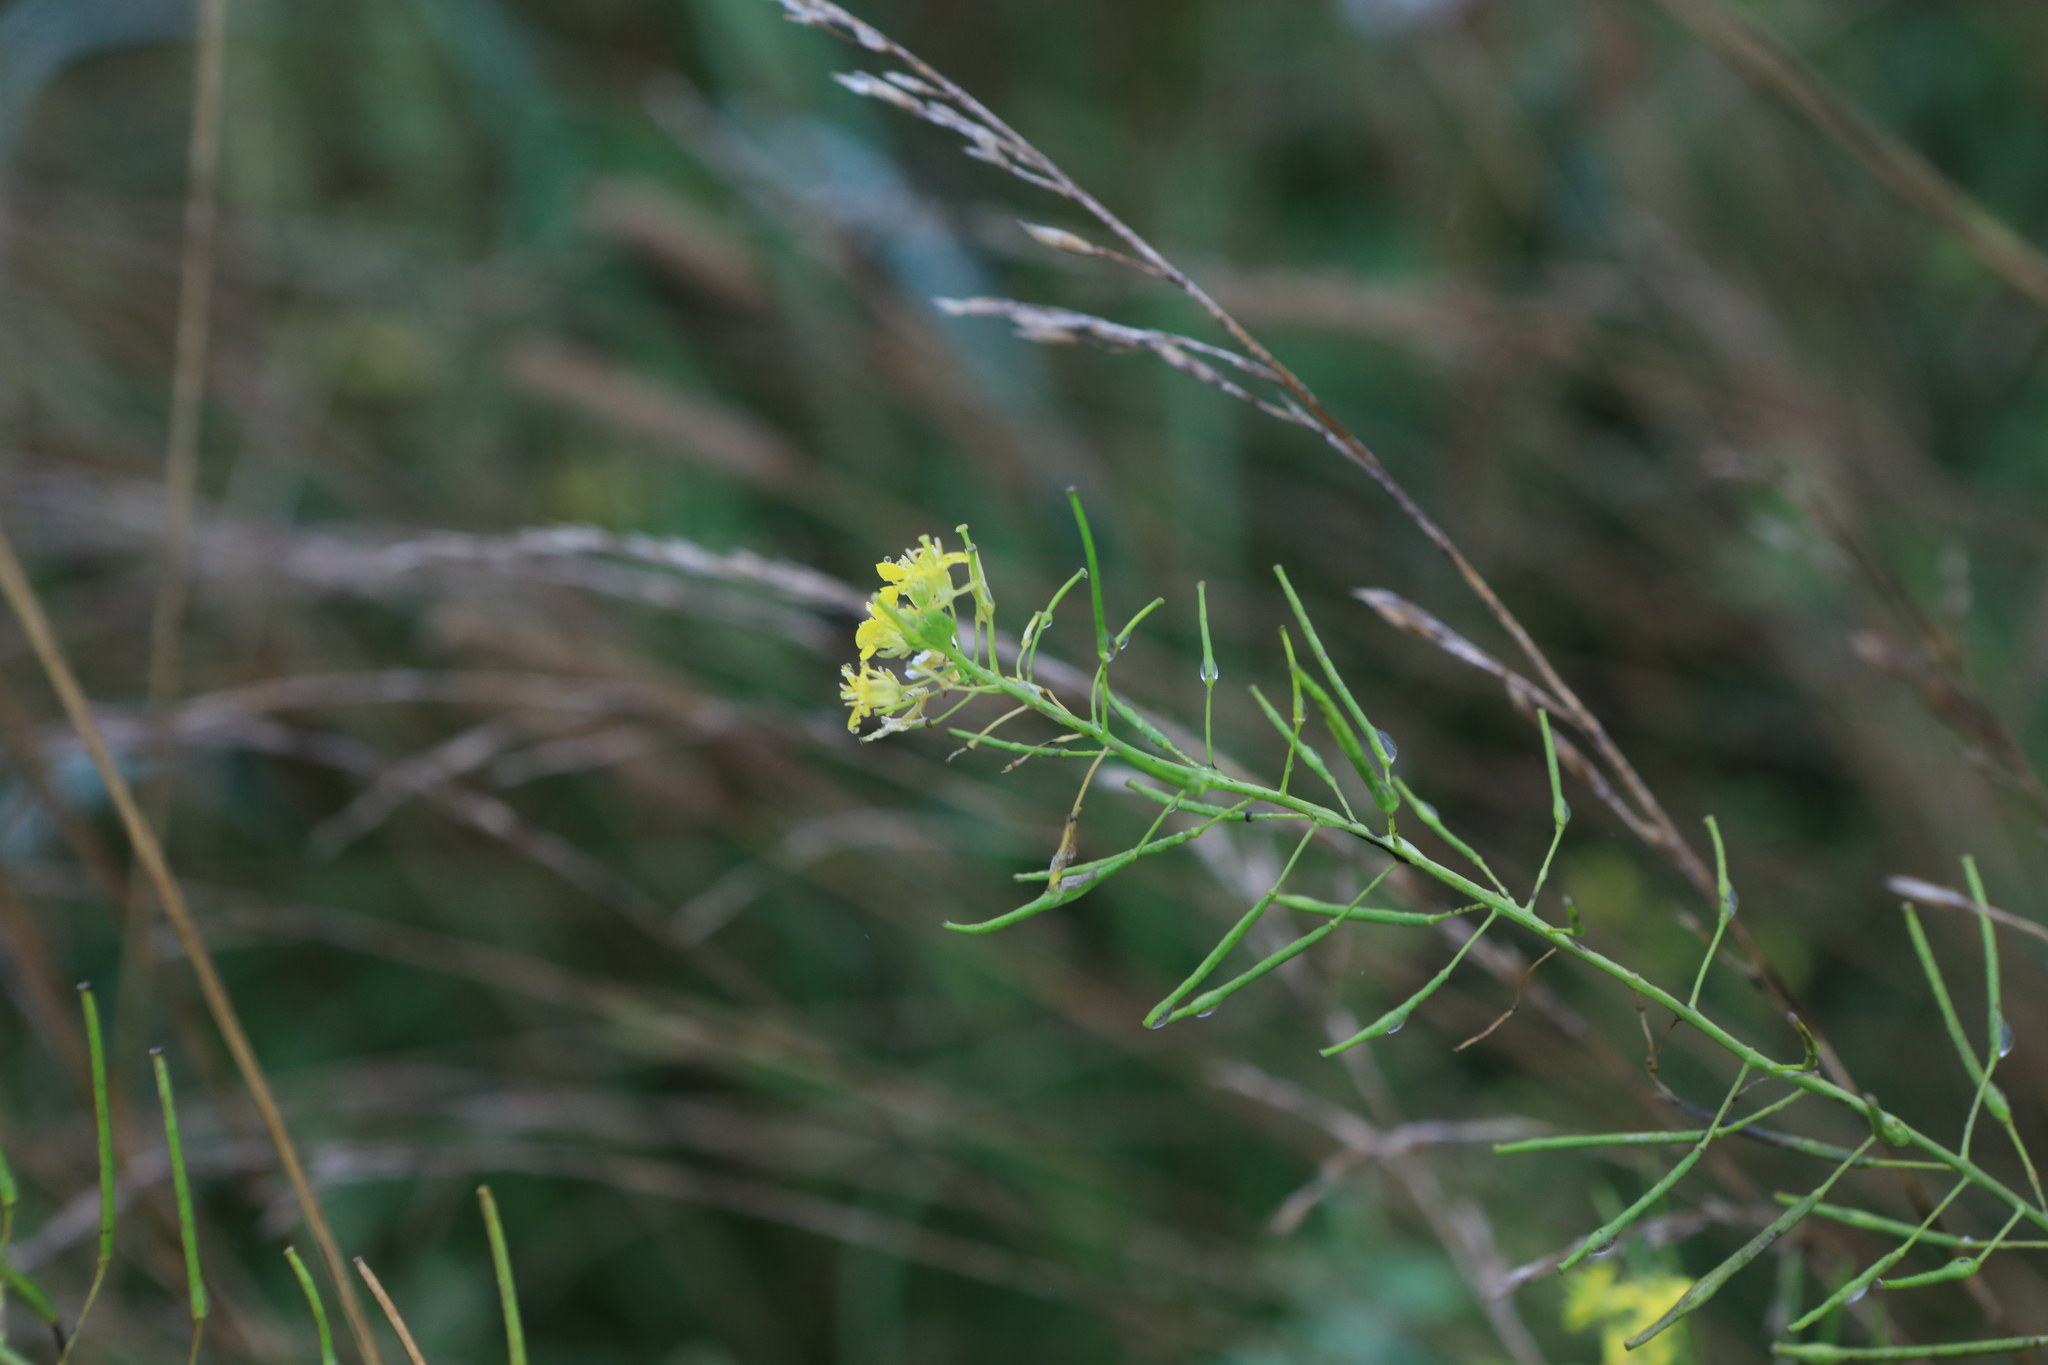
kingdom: Plantae
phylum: Tracheophyta
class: Magnoliopsida
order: Brassicales
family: Brassicaceae
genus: Sisymbrium
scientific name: Sisymbrium loeselii
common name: False london-rocket
